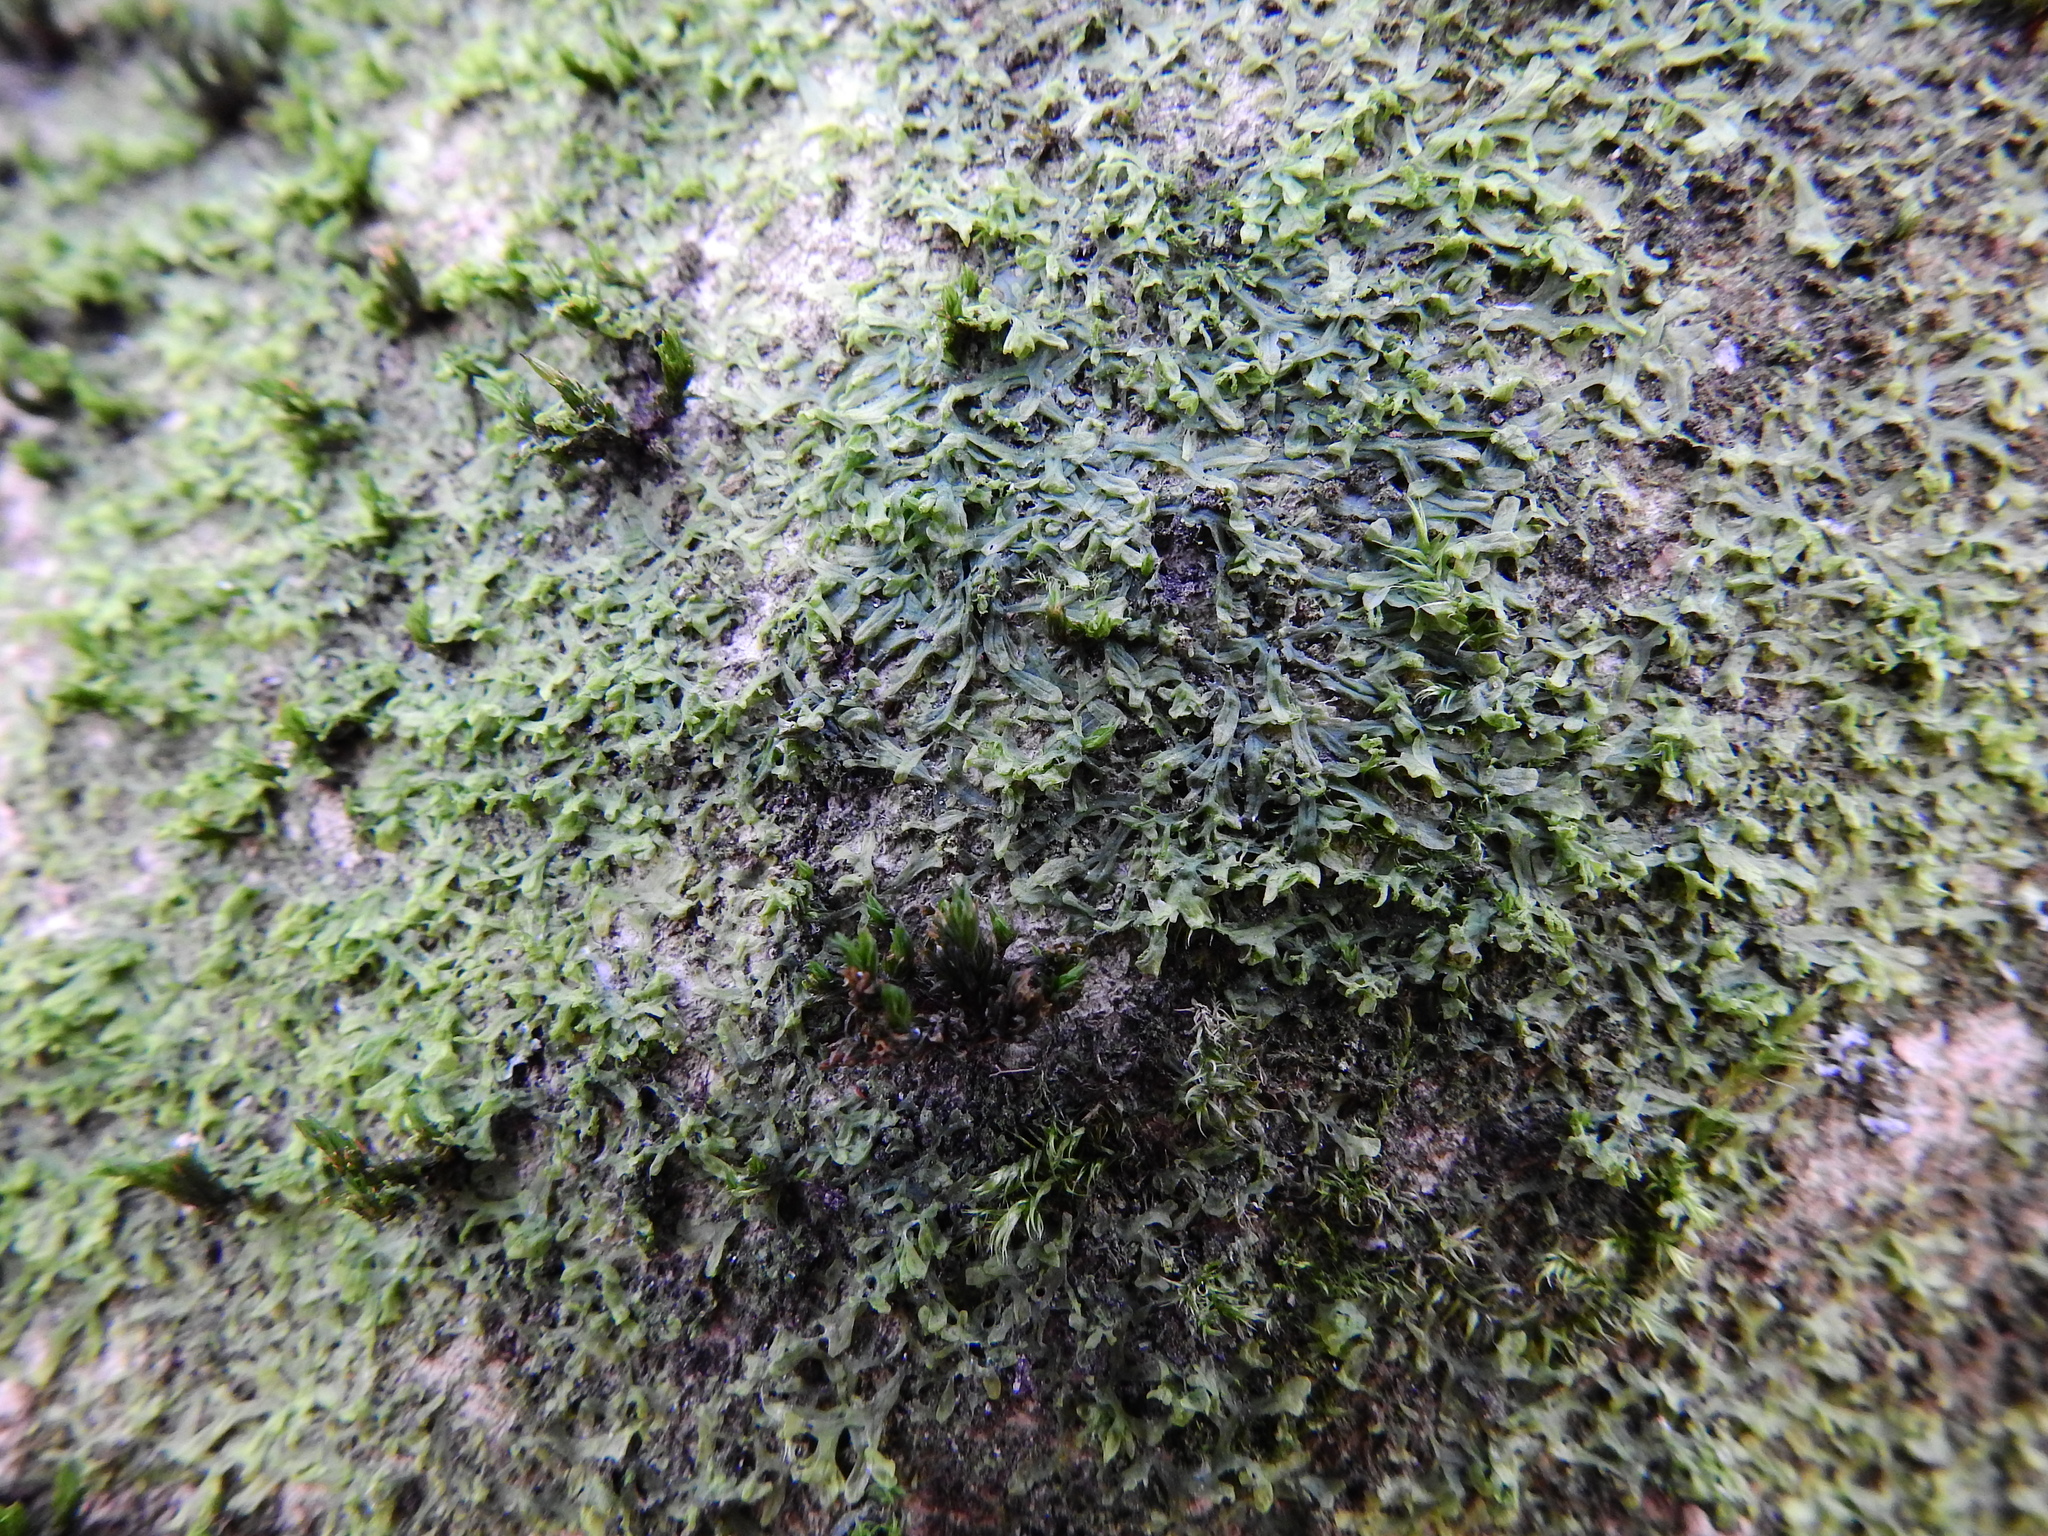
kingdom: Plantae
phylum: Marchantiophyta
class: Jungermanniopsida
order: Metzgeriales
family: Metzgeriaceae
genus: Metzgeria
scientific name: Metzgeria furcata
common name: Forked veilwort
